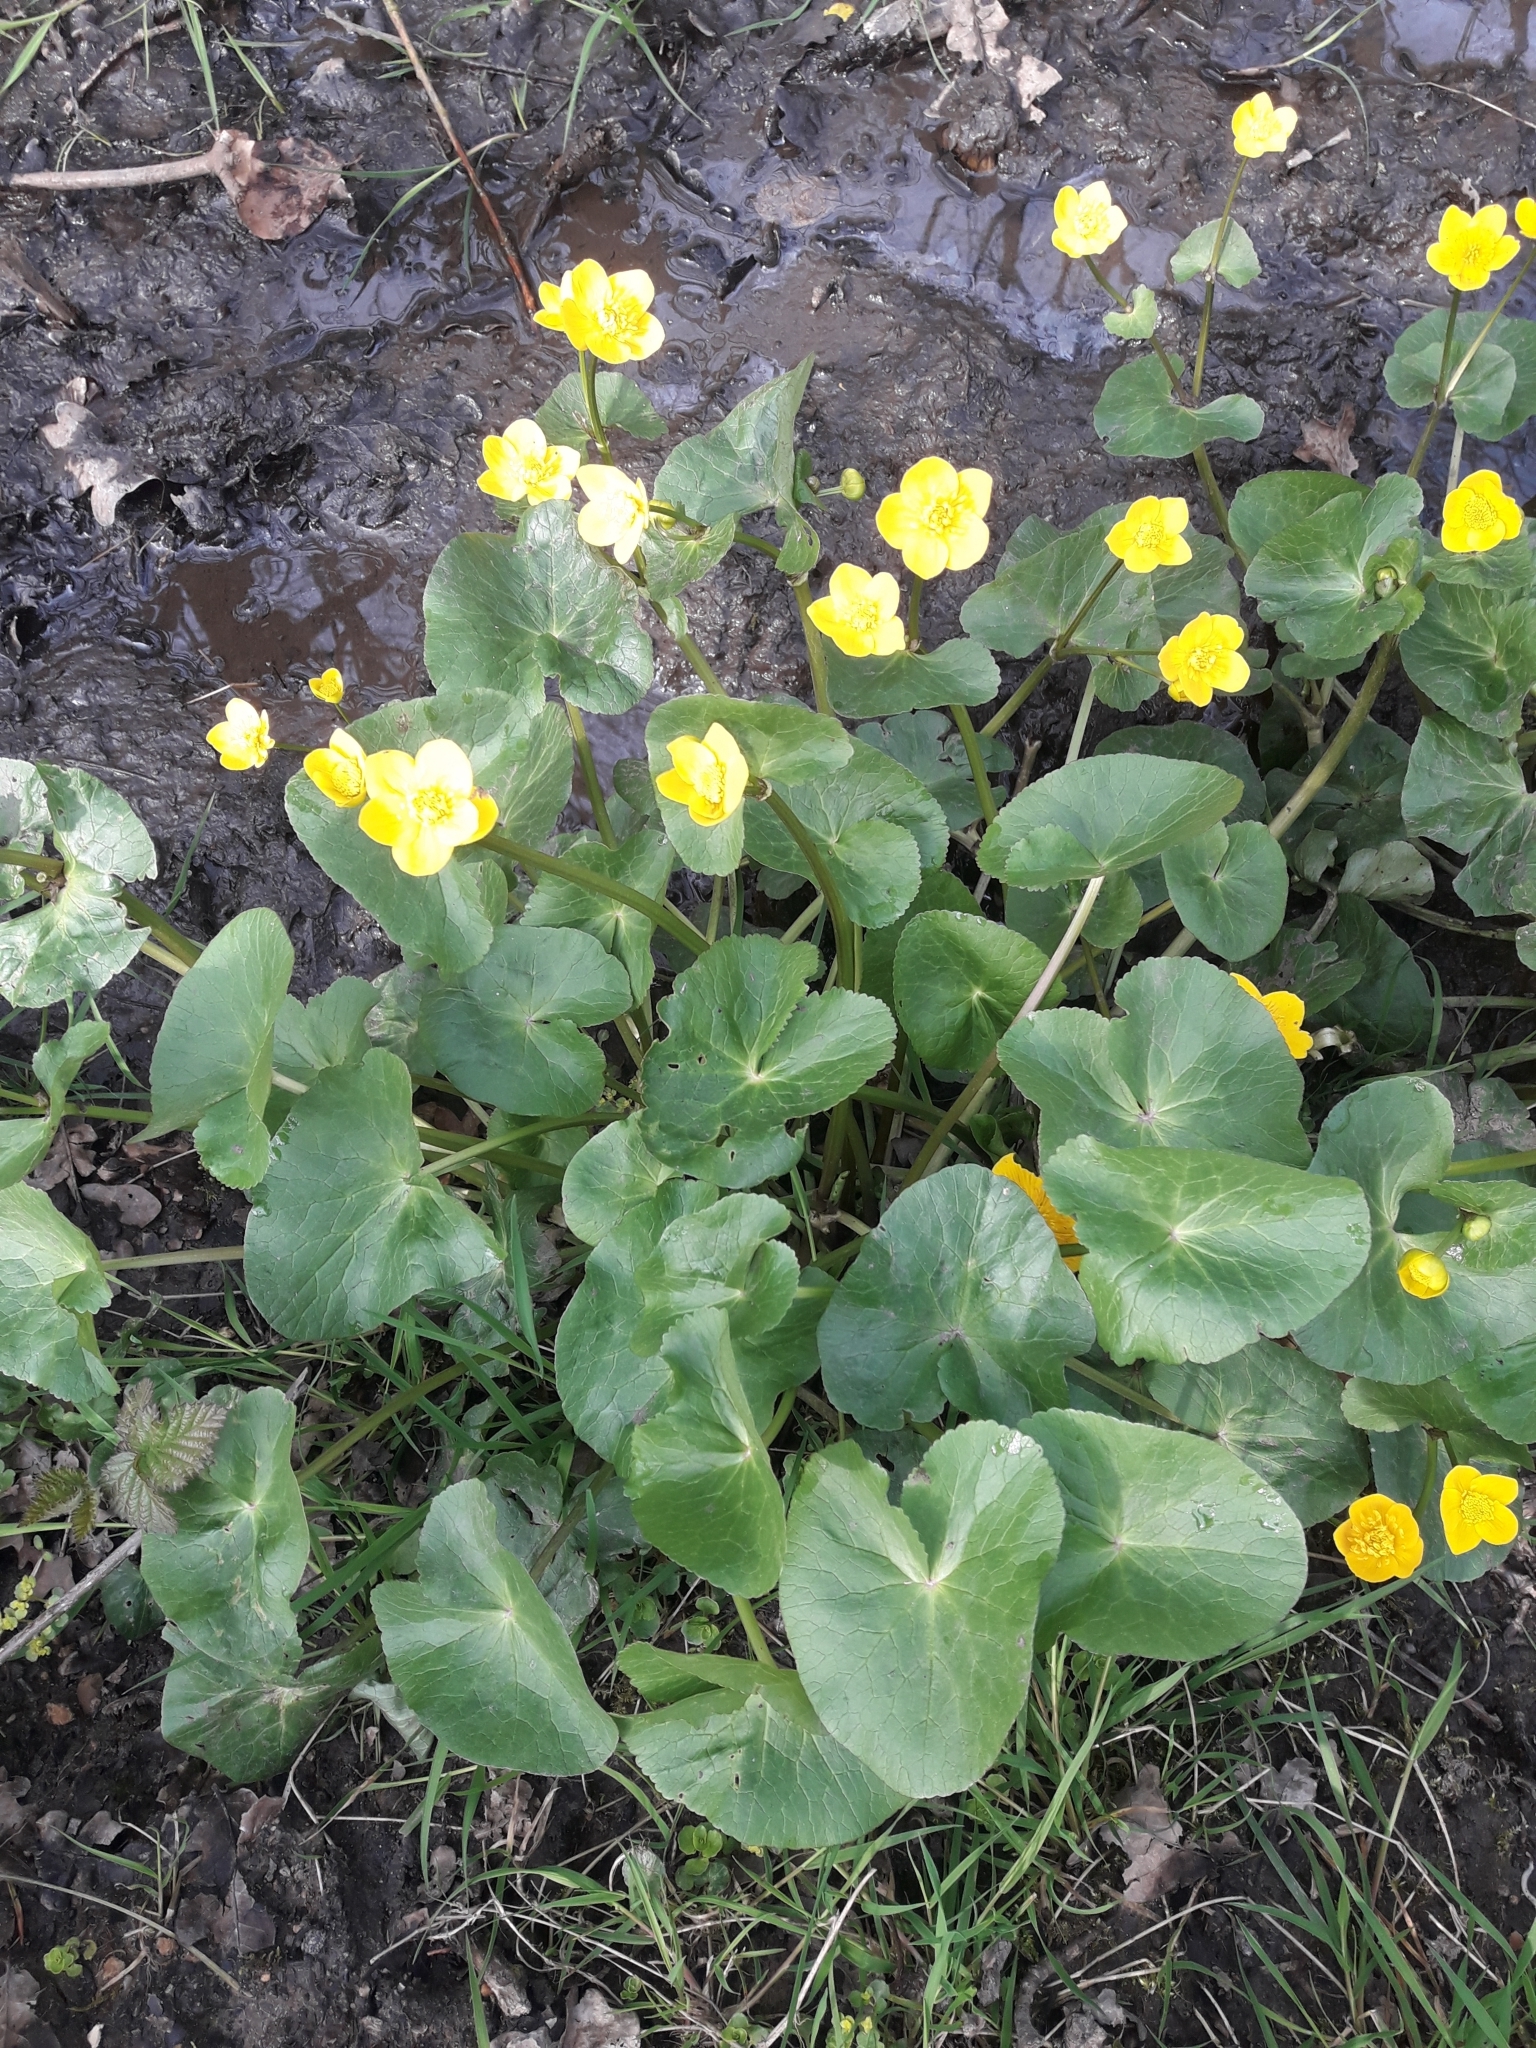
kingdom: Plantae
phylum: Tracheophyta
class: Magnoliopsida
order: Ranunculales
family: Ranunculaceae
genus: Caltha
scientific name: Caltha palustris
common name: Marsh marigold
